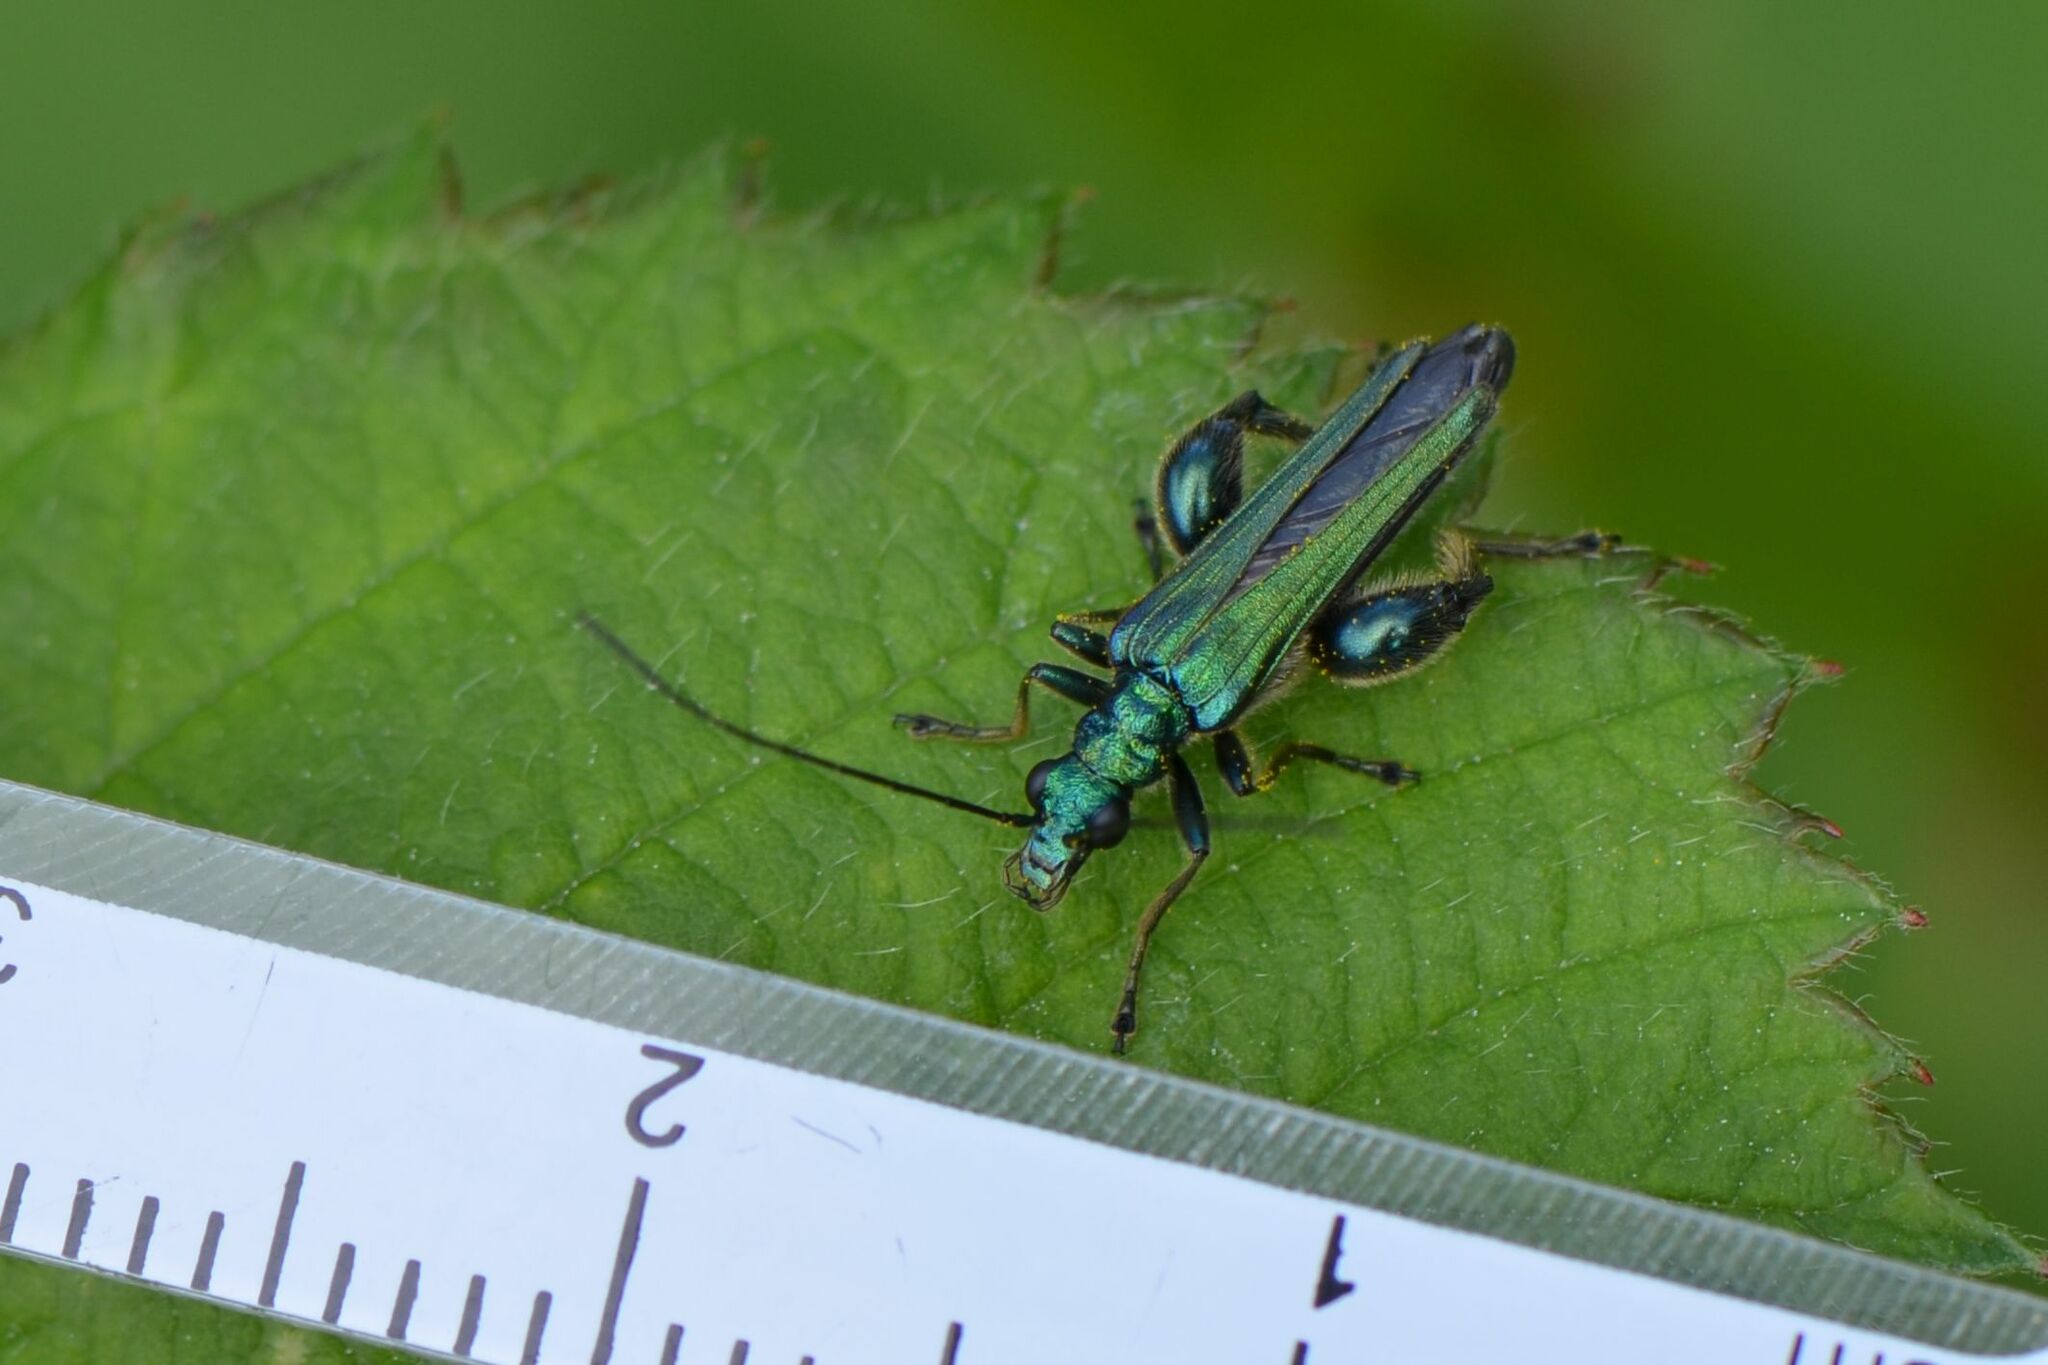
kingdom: Animalia
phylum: Arthropoda
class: Insecta
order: Coleoptera
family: Oedemeridae
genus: Oedemera
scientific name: Oedemera nobilis
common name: Swollen-thighed beetle
